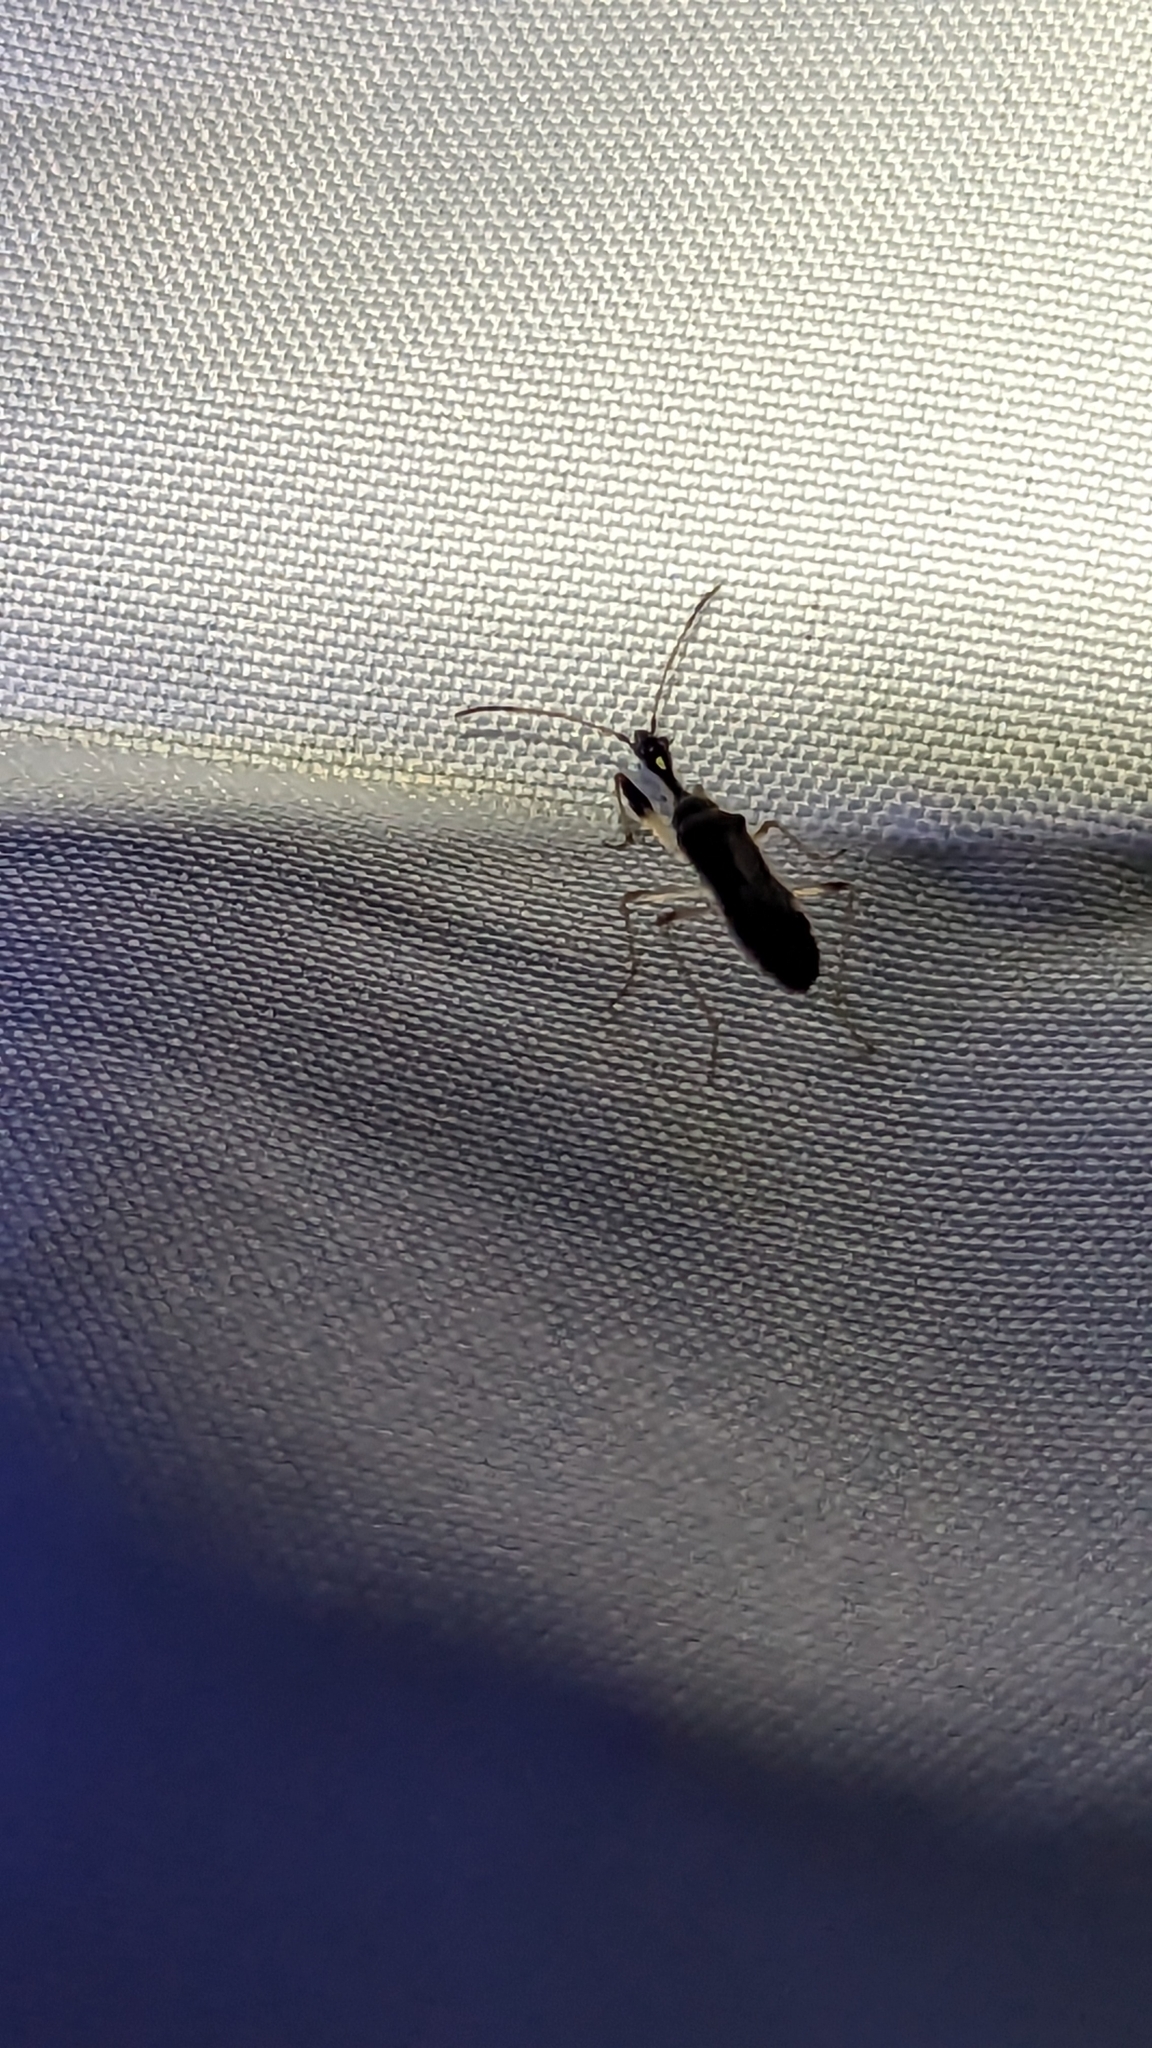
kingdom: Animalia
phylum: Arthropoda
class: Insecta
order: Hemiptera
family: Rhyparochromidae
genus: Myodocha
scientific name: Myodocha serripes
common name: Long-necked seed bug
